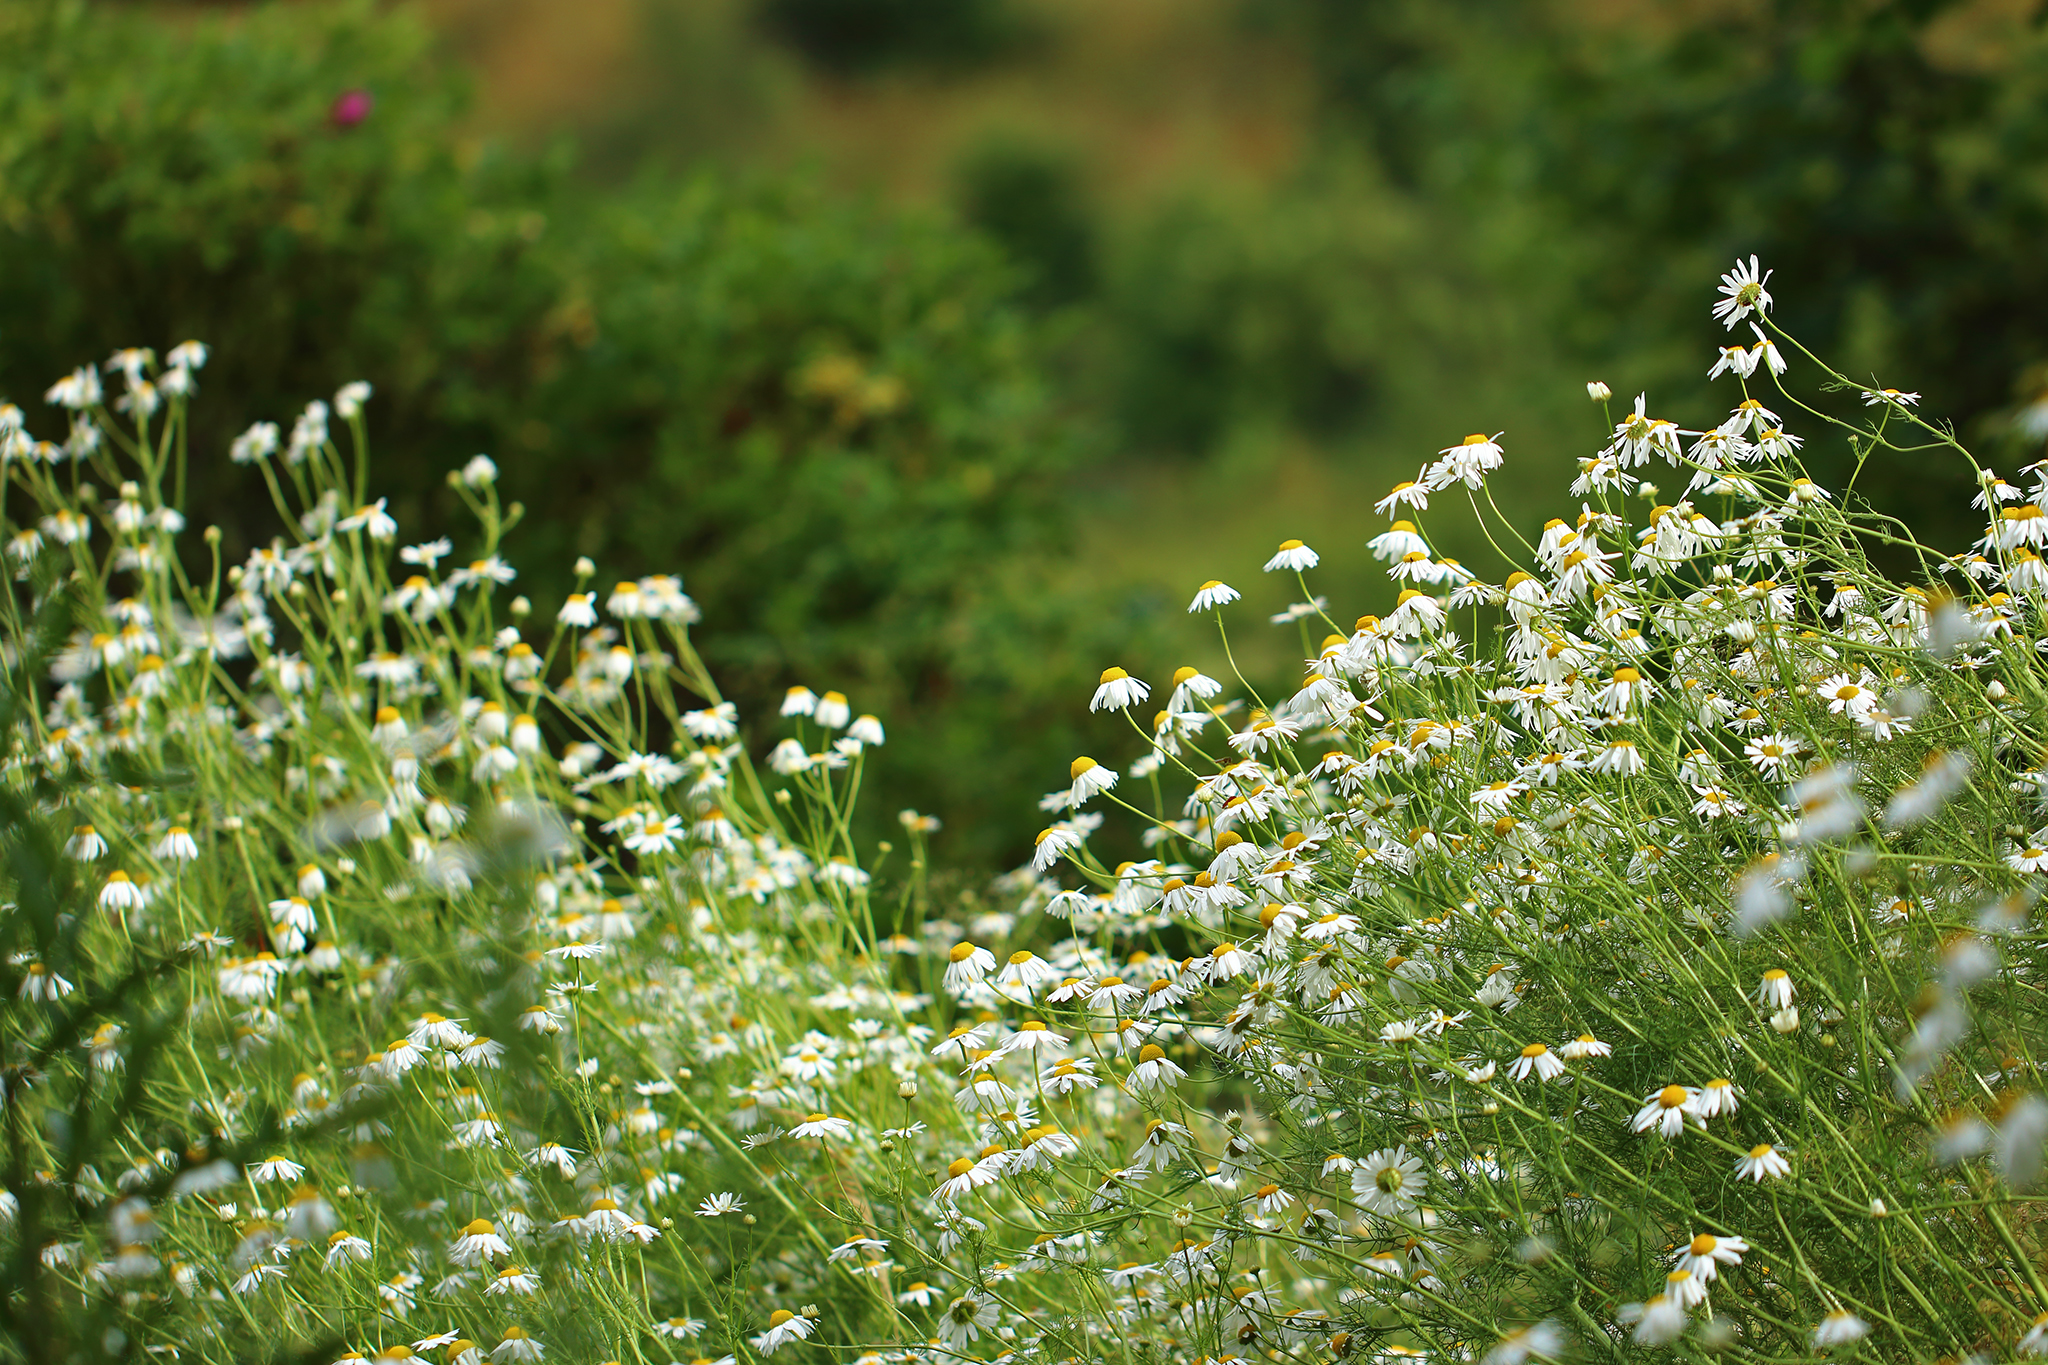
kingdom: Plantae
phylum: Tracheophyta
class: Magnoliopsida
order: Asterales
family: Asteraceae
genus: Tripleurospermum
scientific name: Tripleurospermum inodorum
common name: Scentless mayweed
